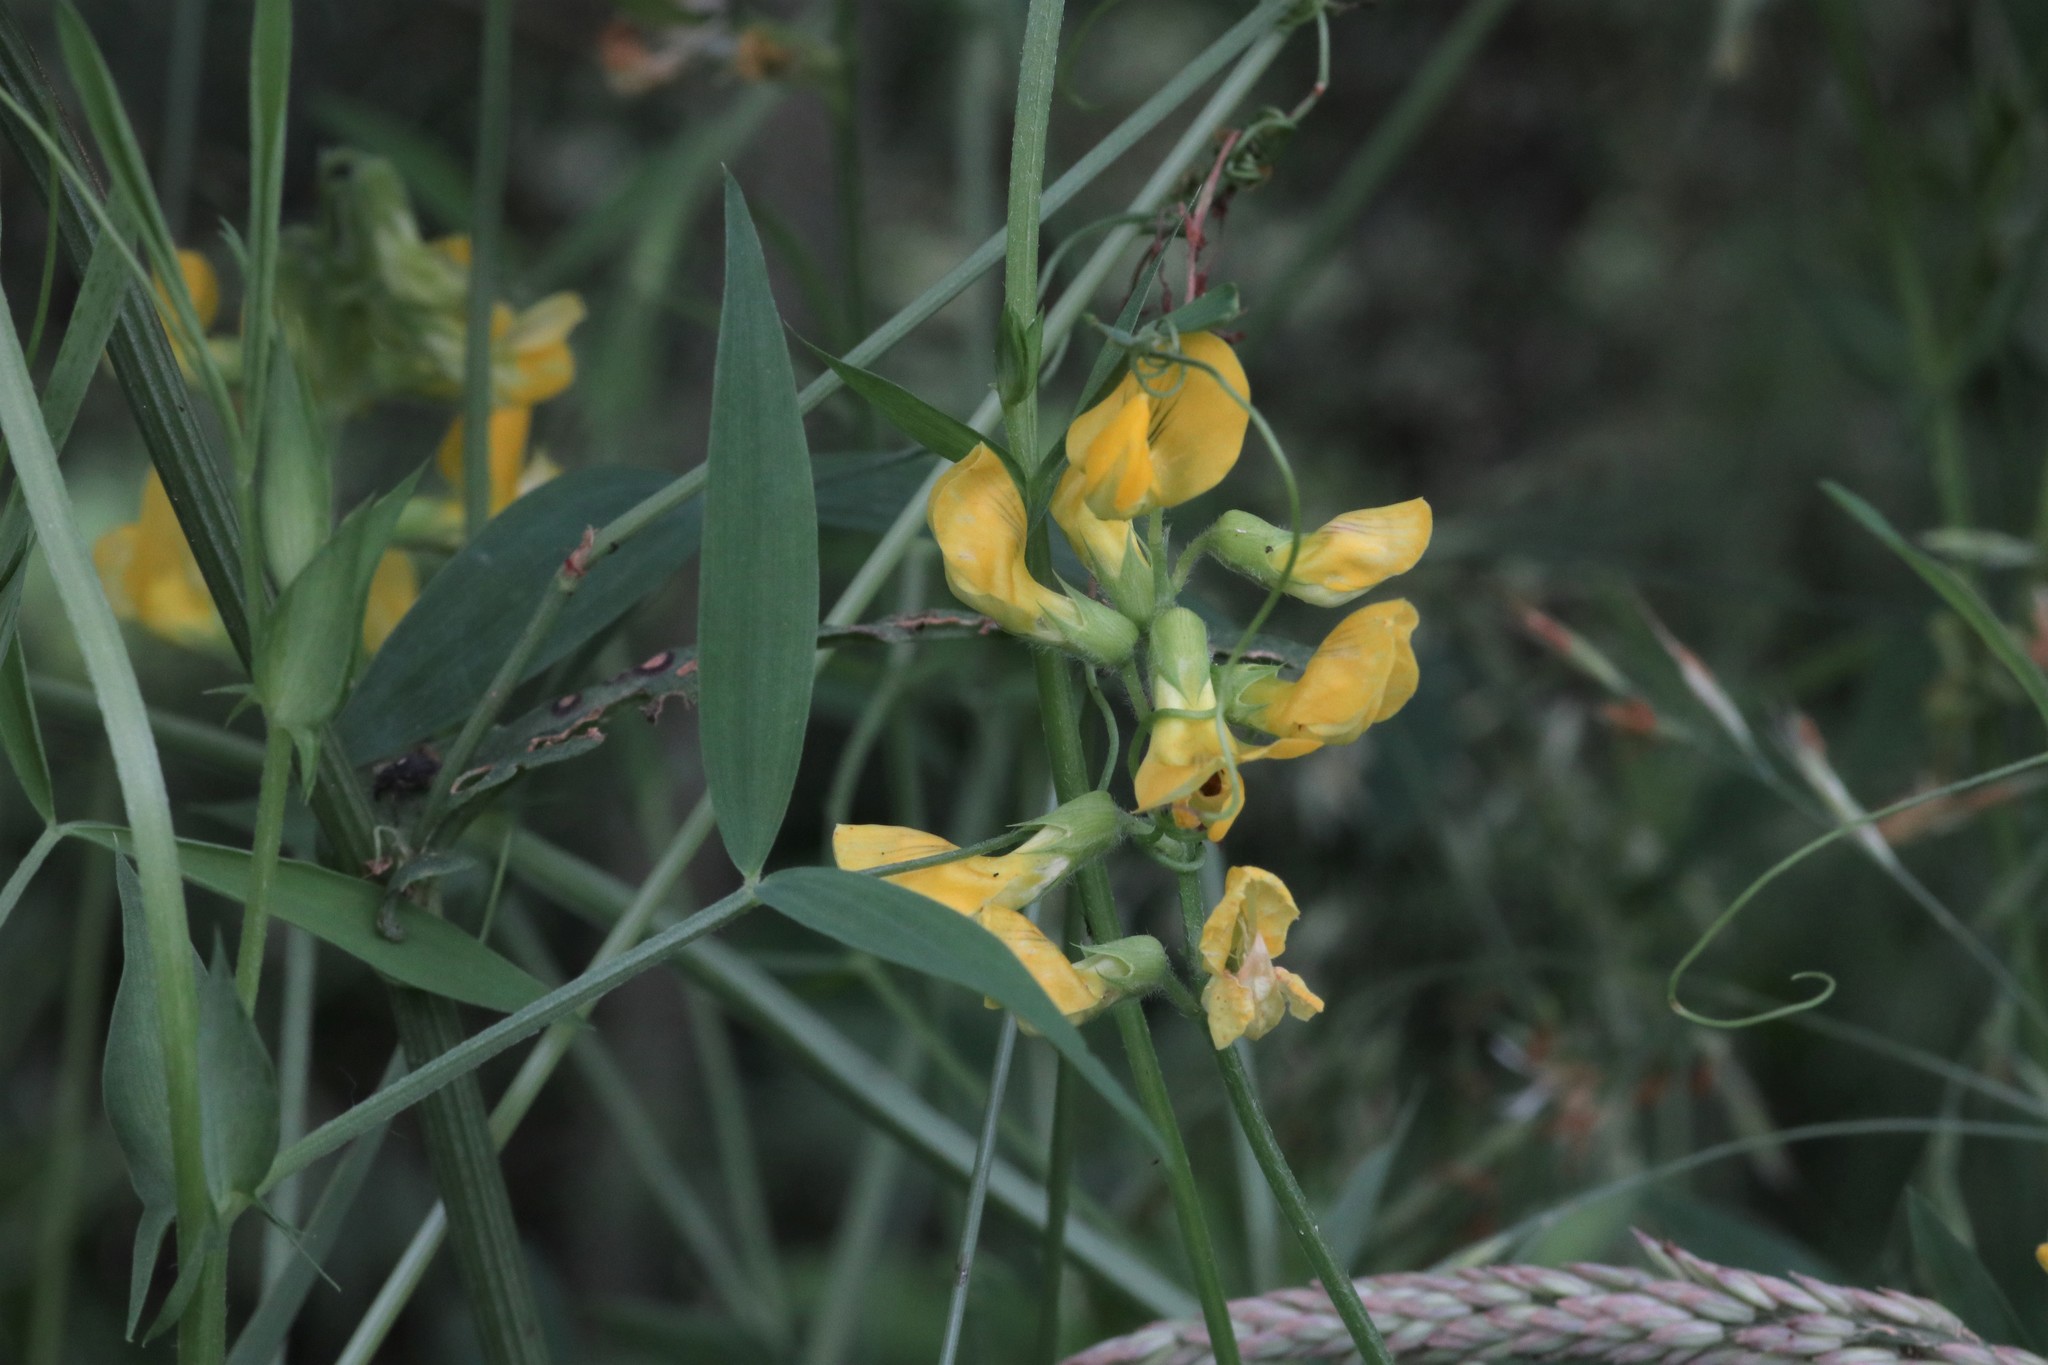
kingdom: Plantae
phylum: Tracheophyta
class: Magnoliopsida
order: Fabales
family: Fabaceae
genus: Lathyrus
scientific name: Lathyrus pratensis
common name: Meadow vetchling
